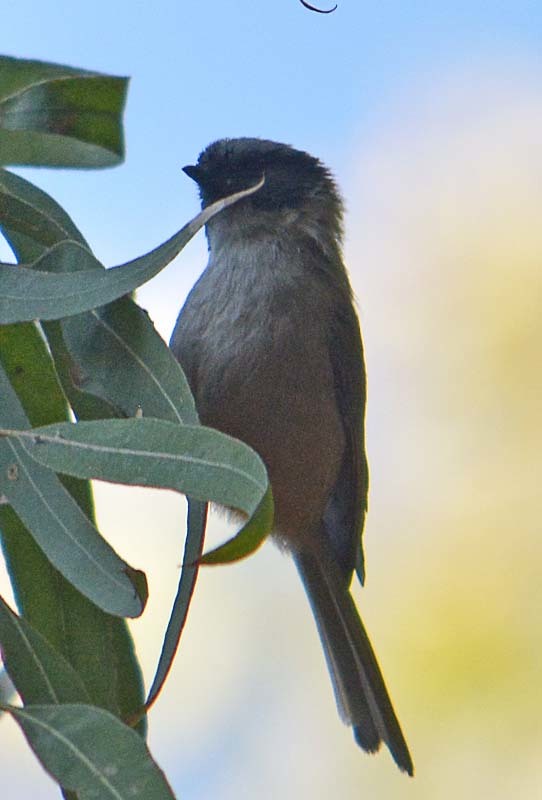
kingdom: Animalia
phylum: Chordata
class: Aves
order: Passeriformes
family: Aegithalidae
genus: Psaltriparus
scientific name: Psaltriparus minimus
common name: American bushtit
